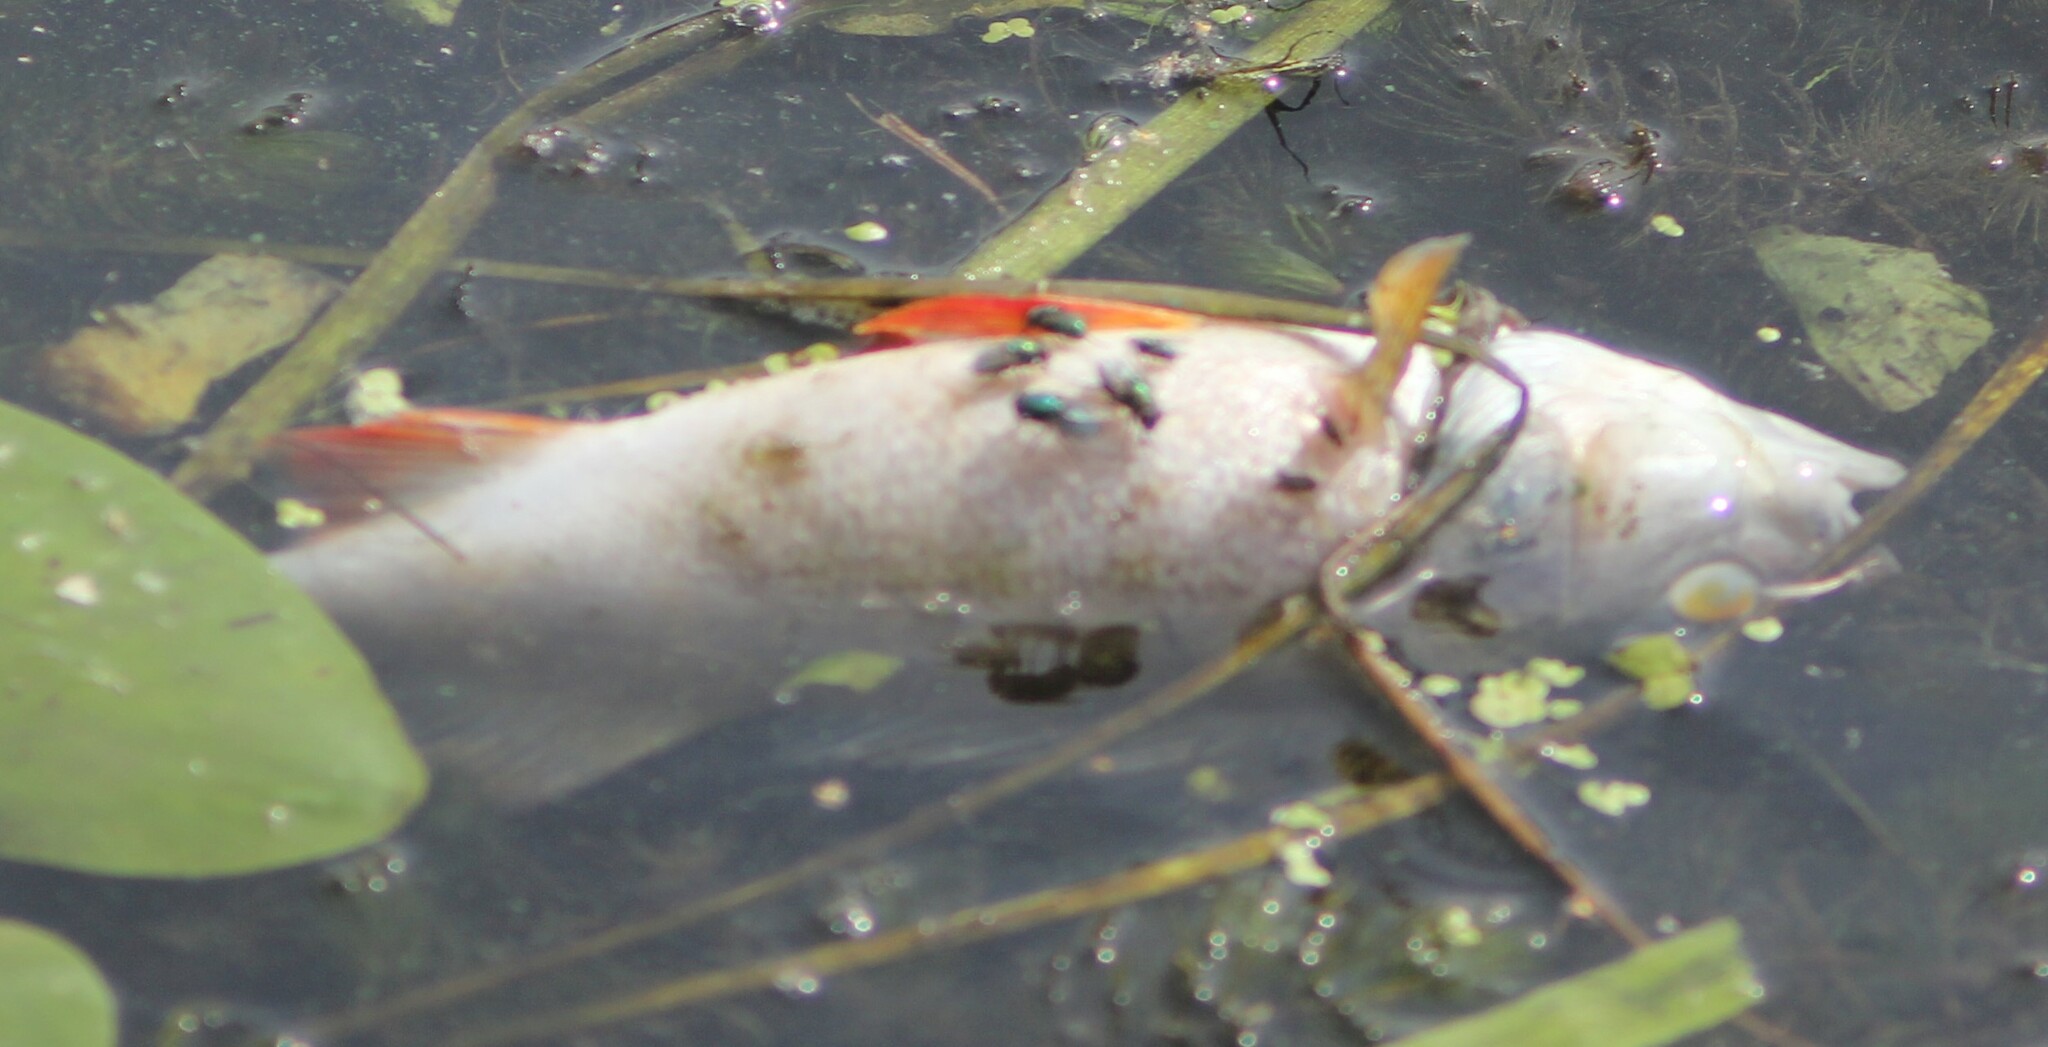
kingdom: Animalia
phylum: Chordata
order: Perciformes
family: Percidae
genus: Perca
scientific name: Perca fluviatilis
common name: Perch
